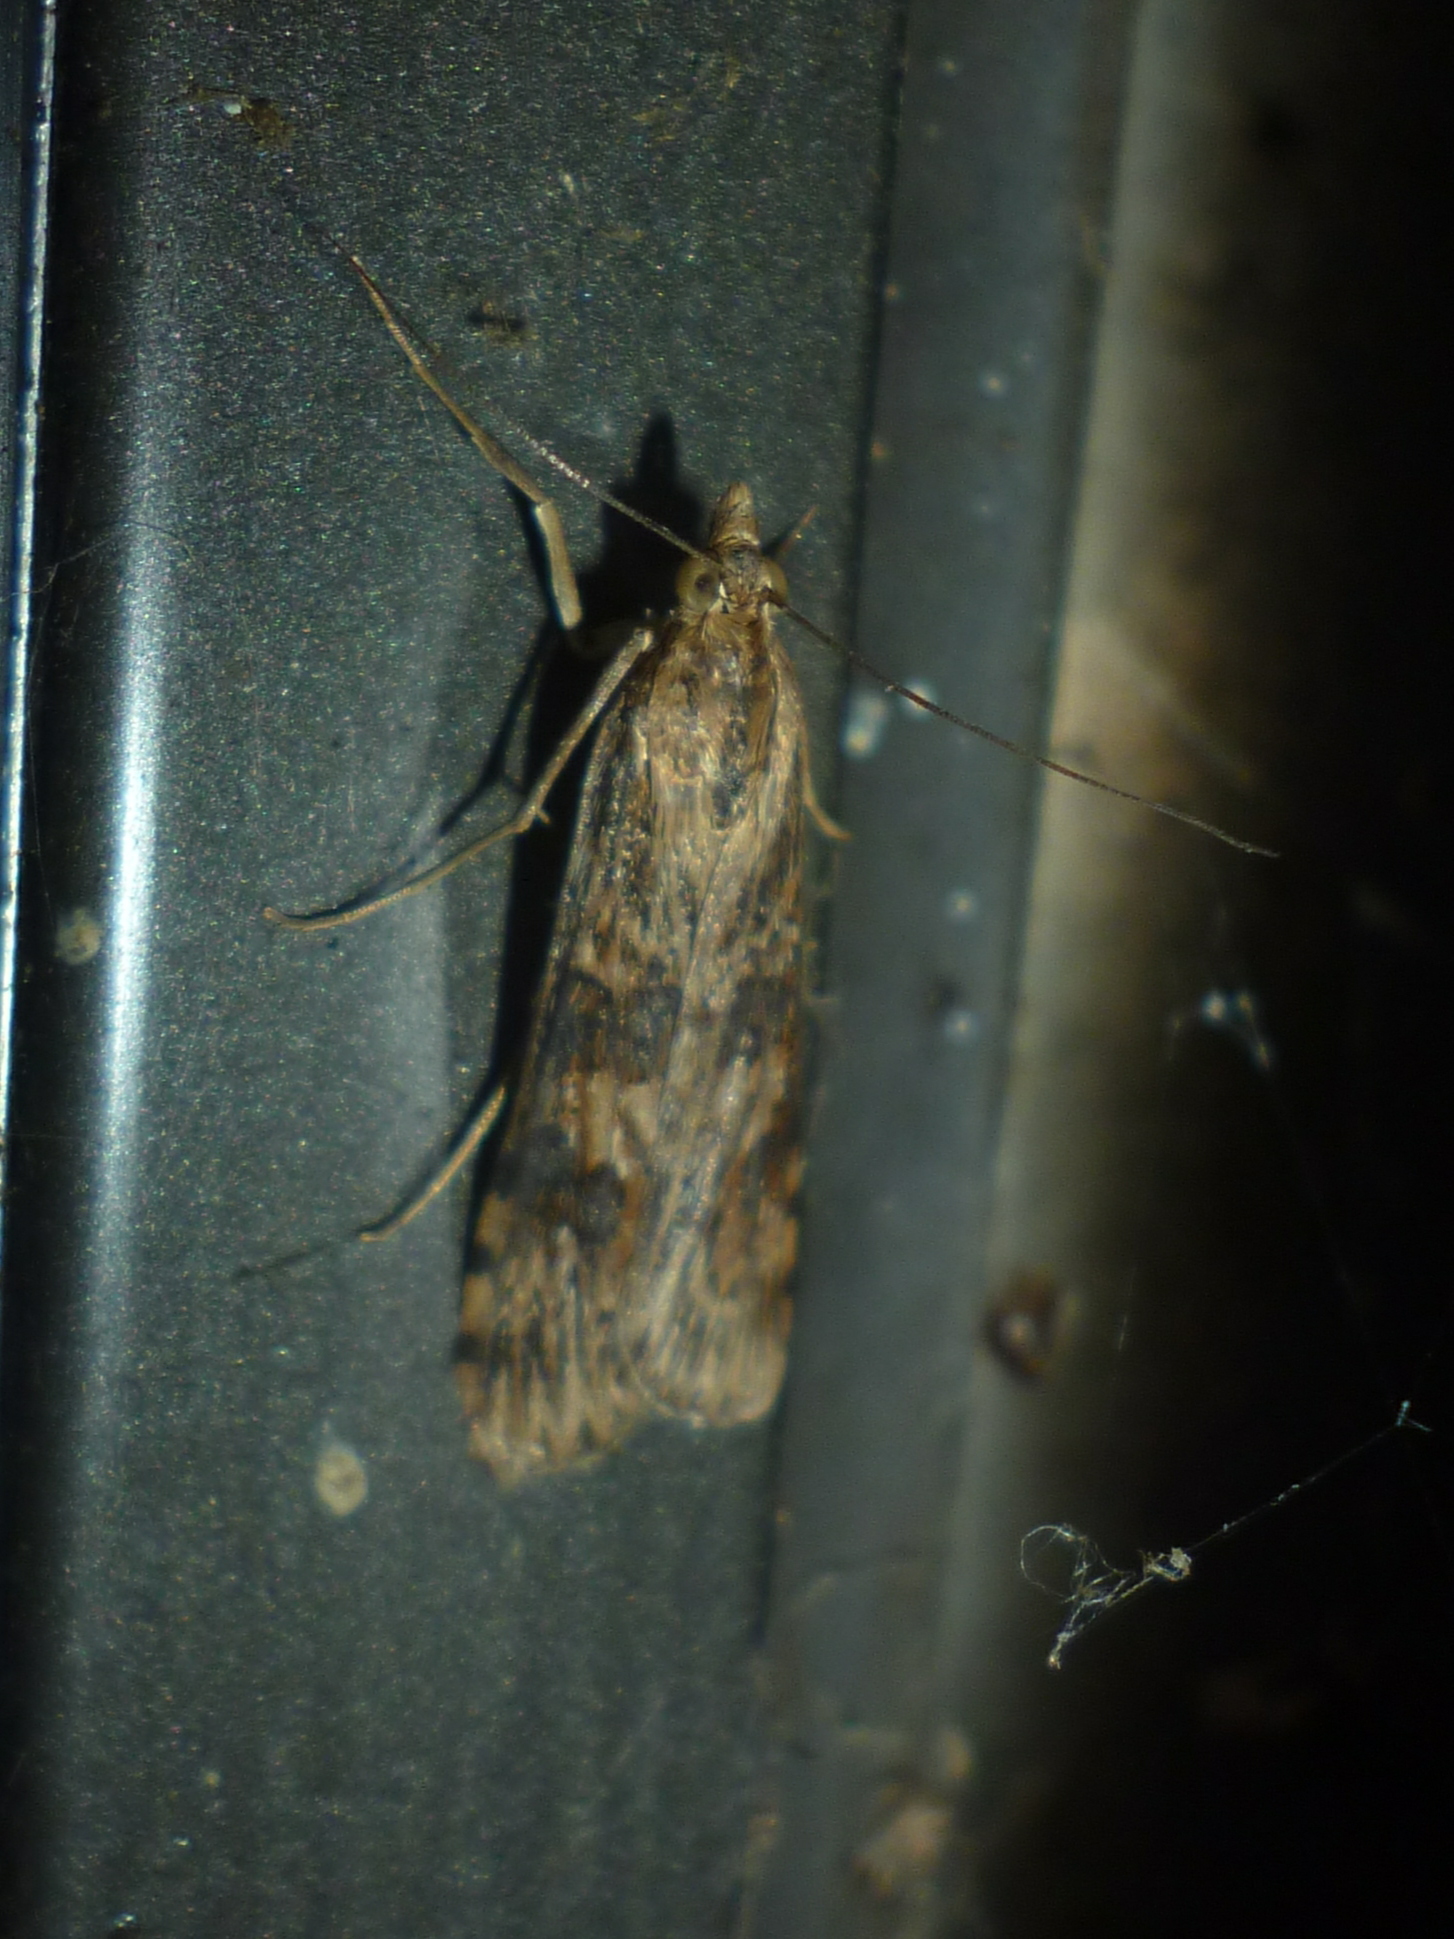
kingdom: Animalia
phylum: Arthropoda
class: Insecta
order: Lepidoptera
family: Crambidae
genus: Nomophila
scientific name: Nomophila nearctica
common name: American rush veneer
